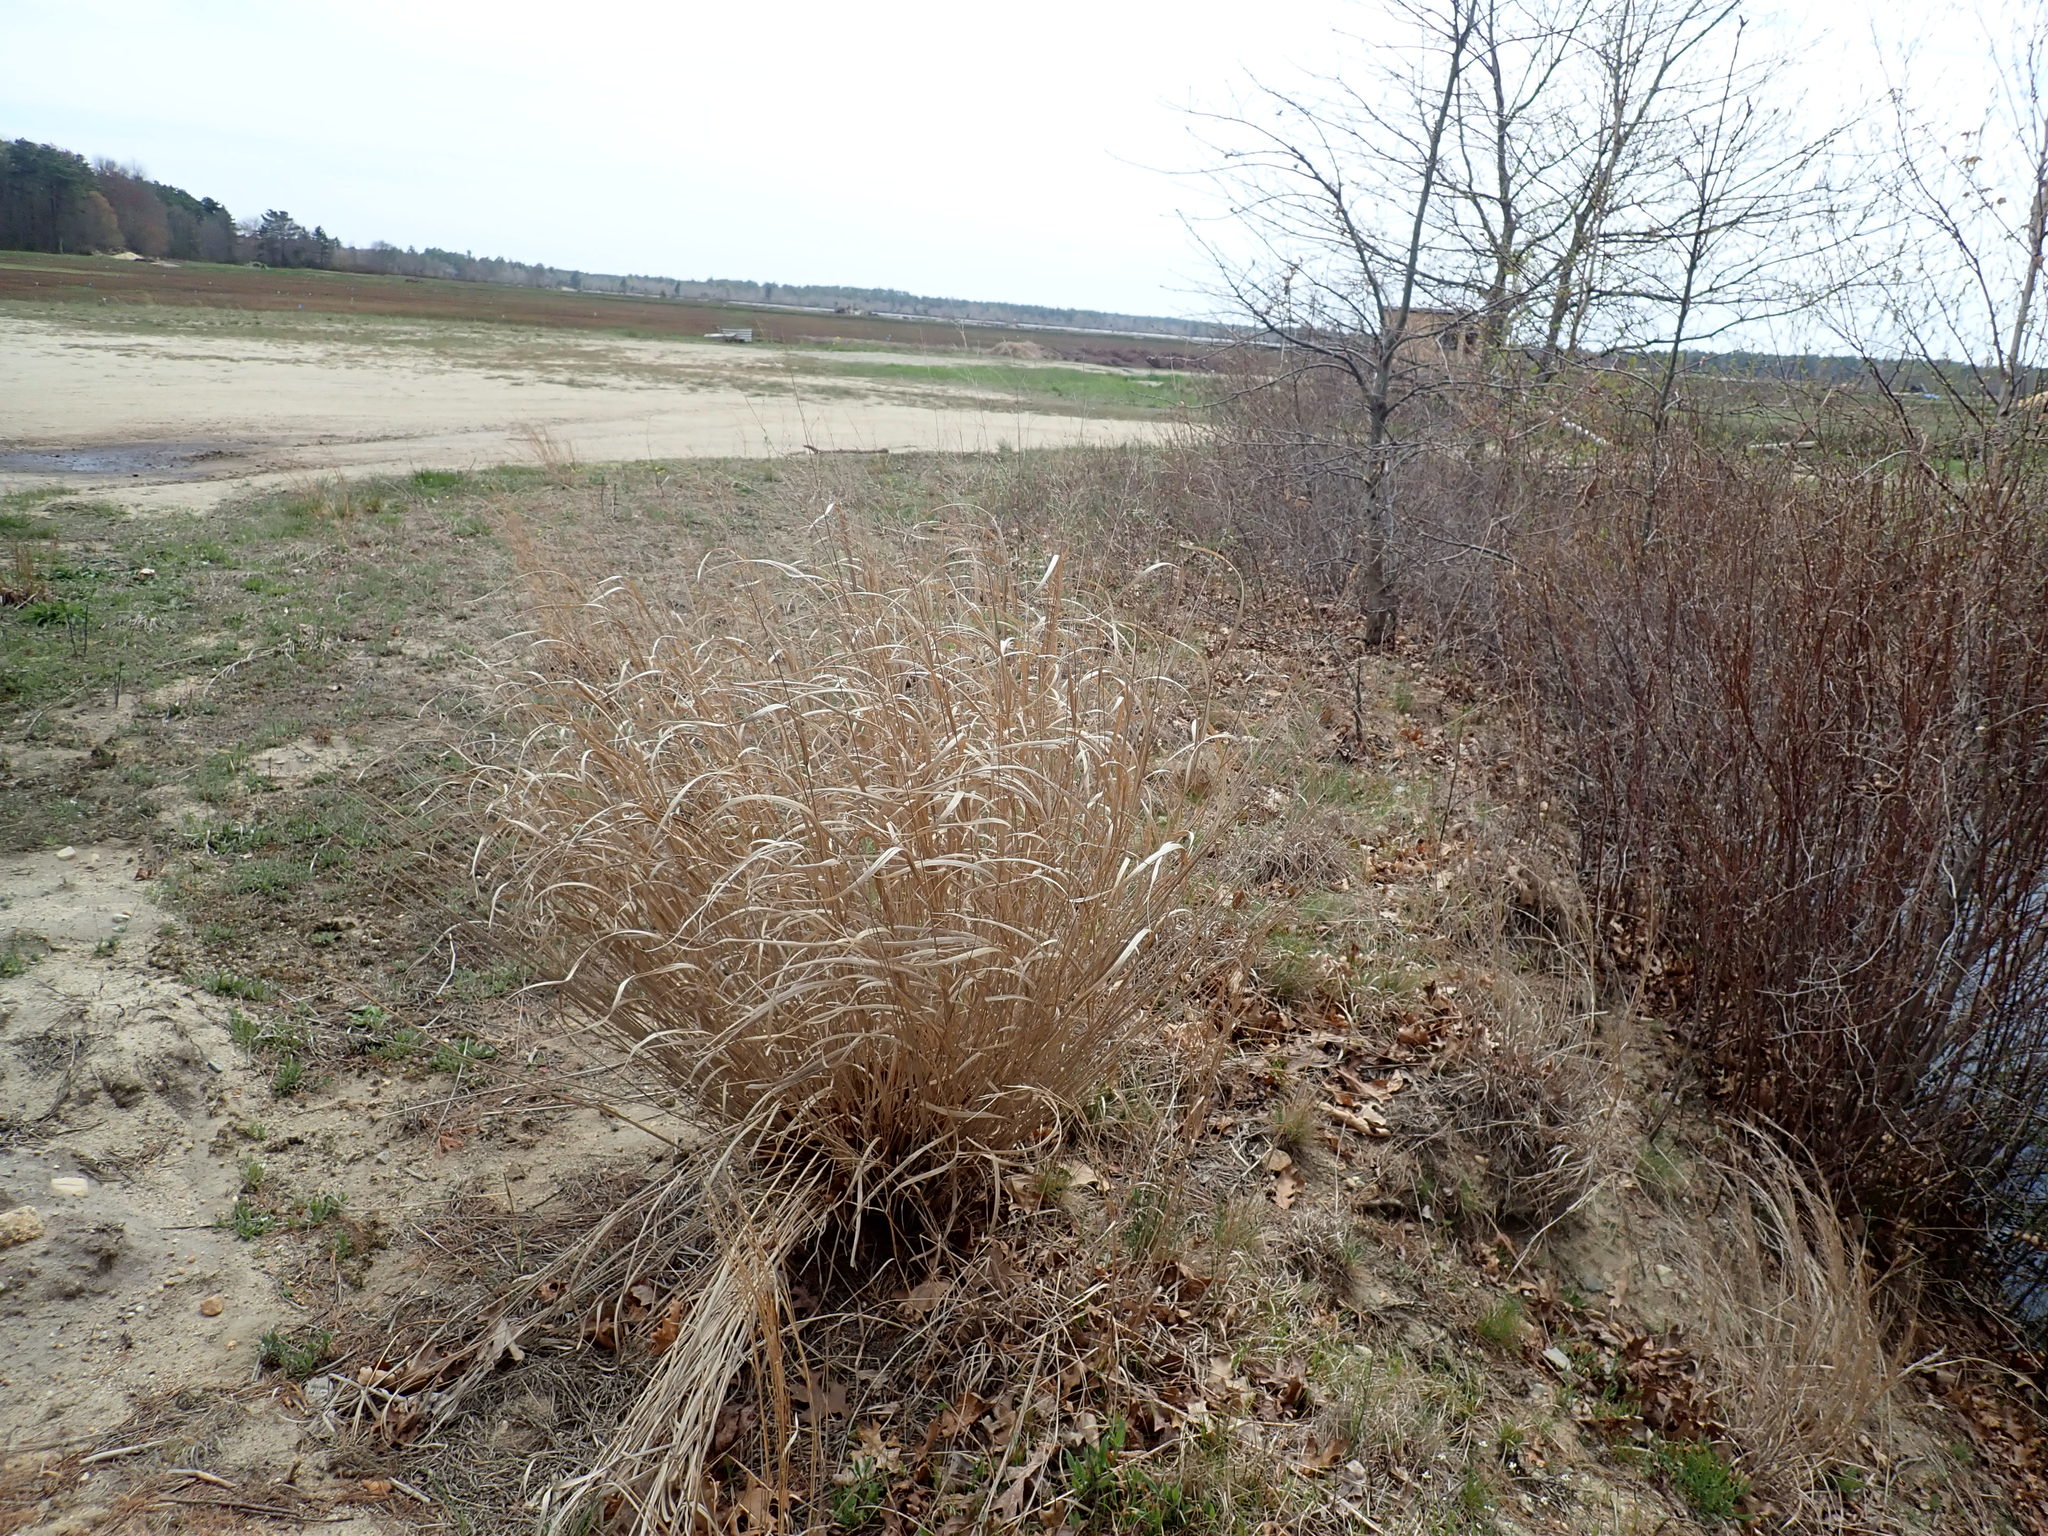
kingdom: Plantae
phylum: Tracheophyta
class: Liliopsida
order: Poales
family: Poaceae
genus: Panicum
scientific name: Panicum virgatum
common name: Switchgrass
